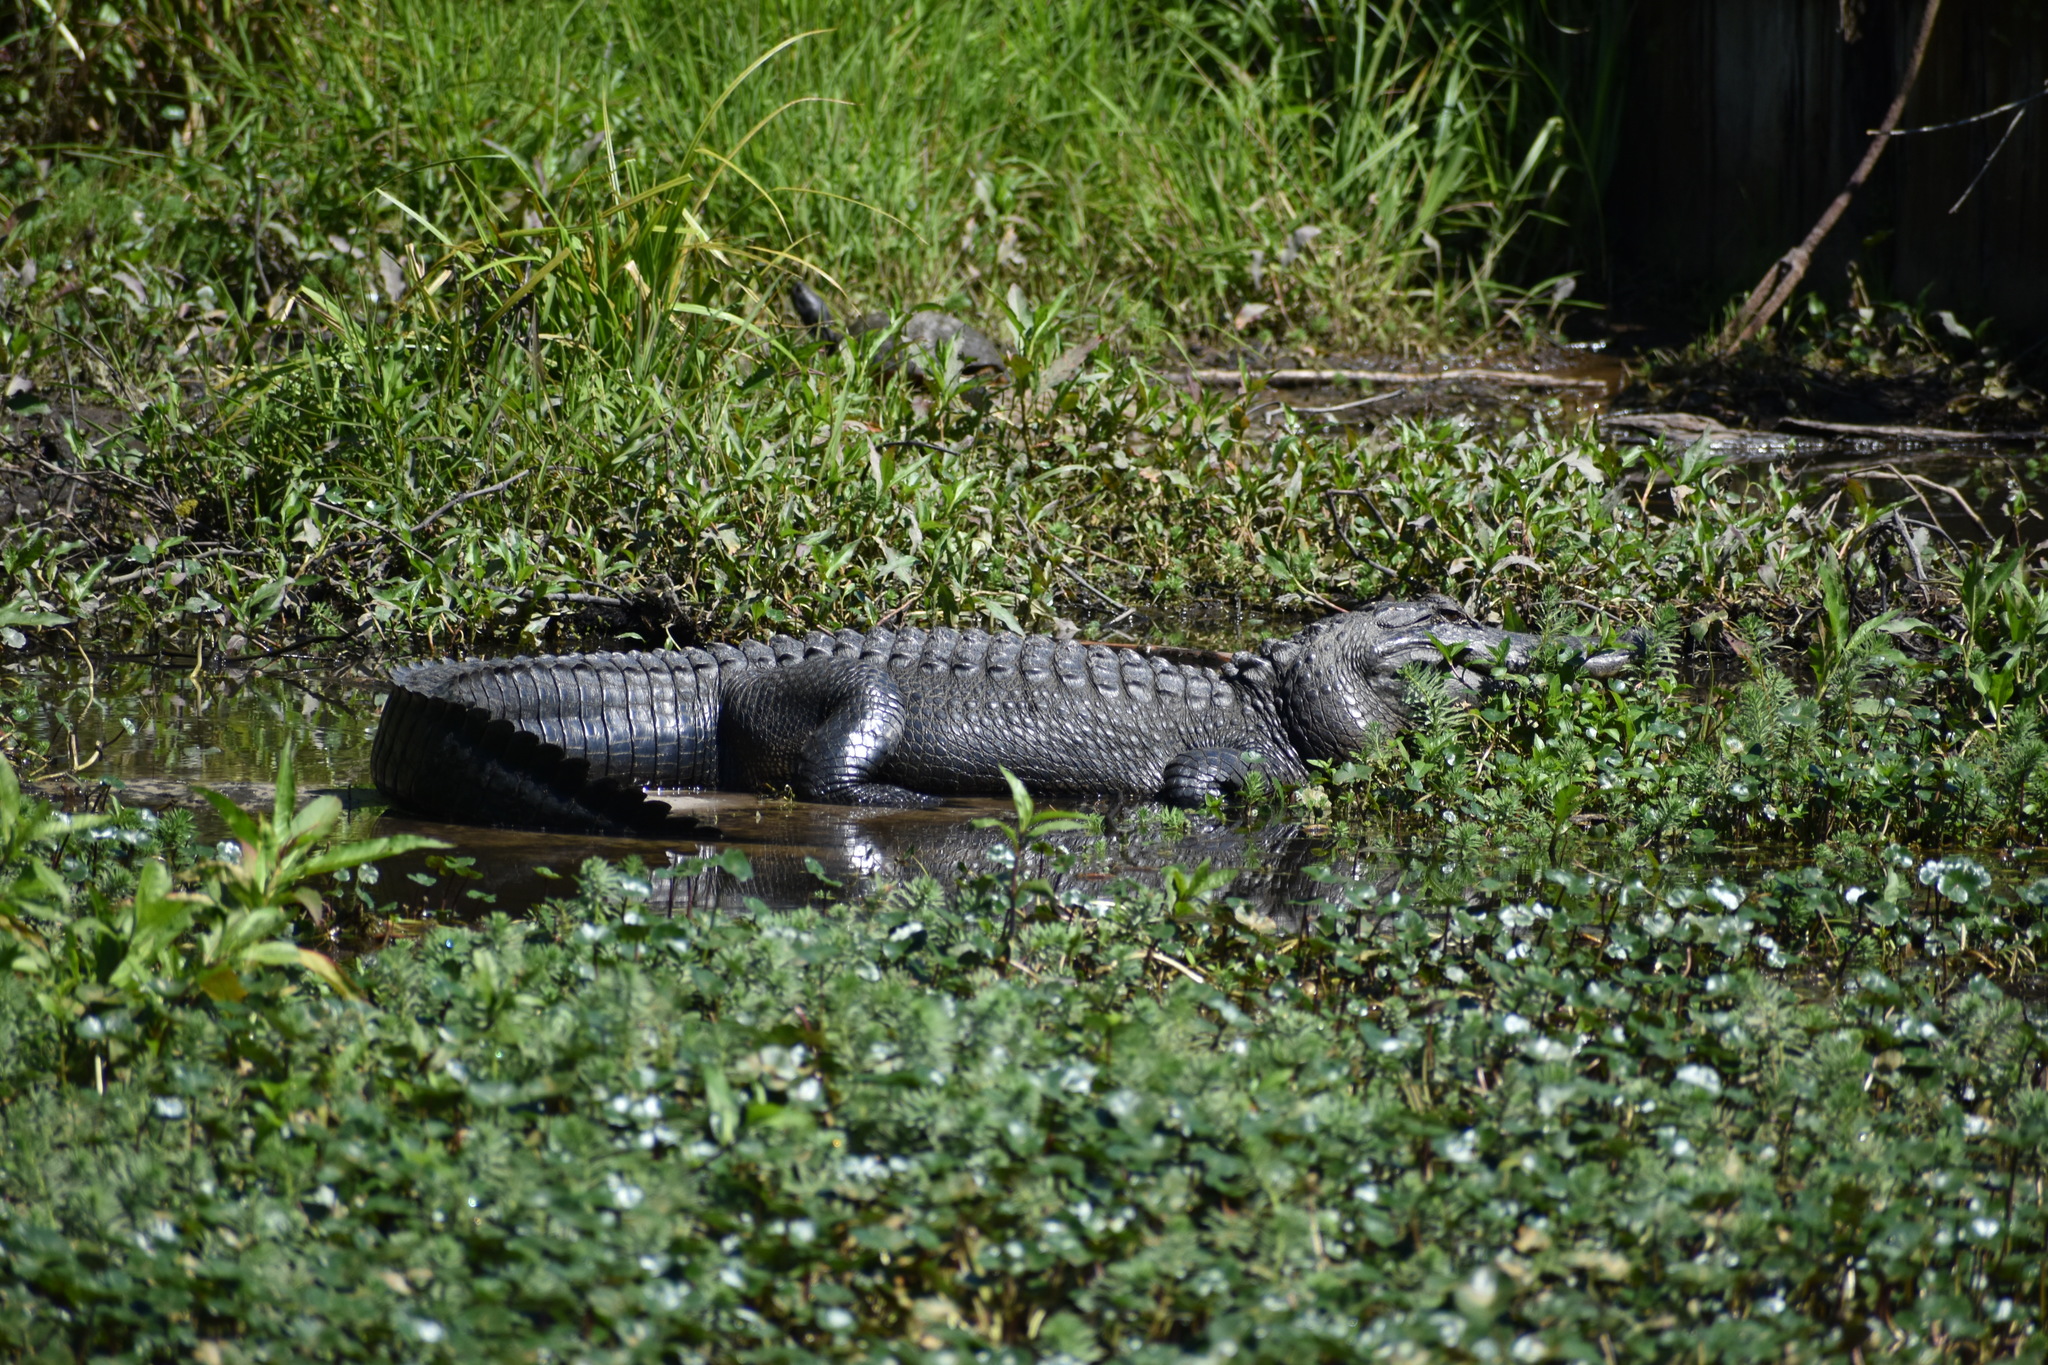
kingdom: Animalia
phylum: Chordata
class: Crocodylia
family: Alligatoridae
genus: Alligator
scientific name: Alligator mississippiensis
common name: American alligator
